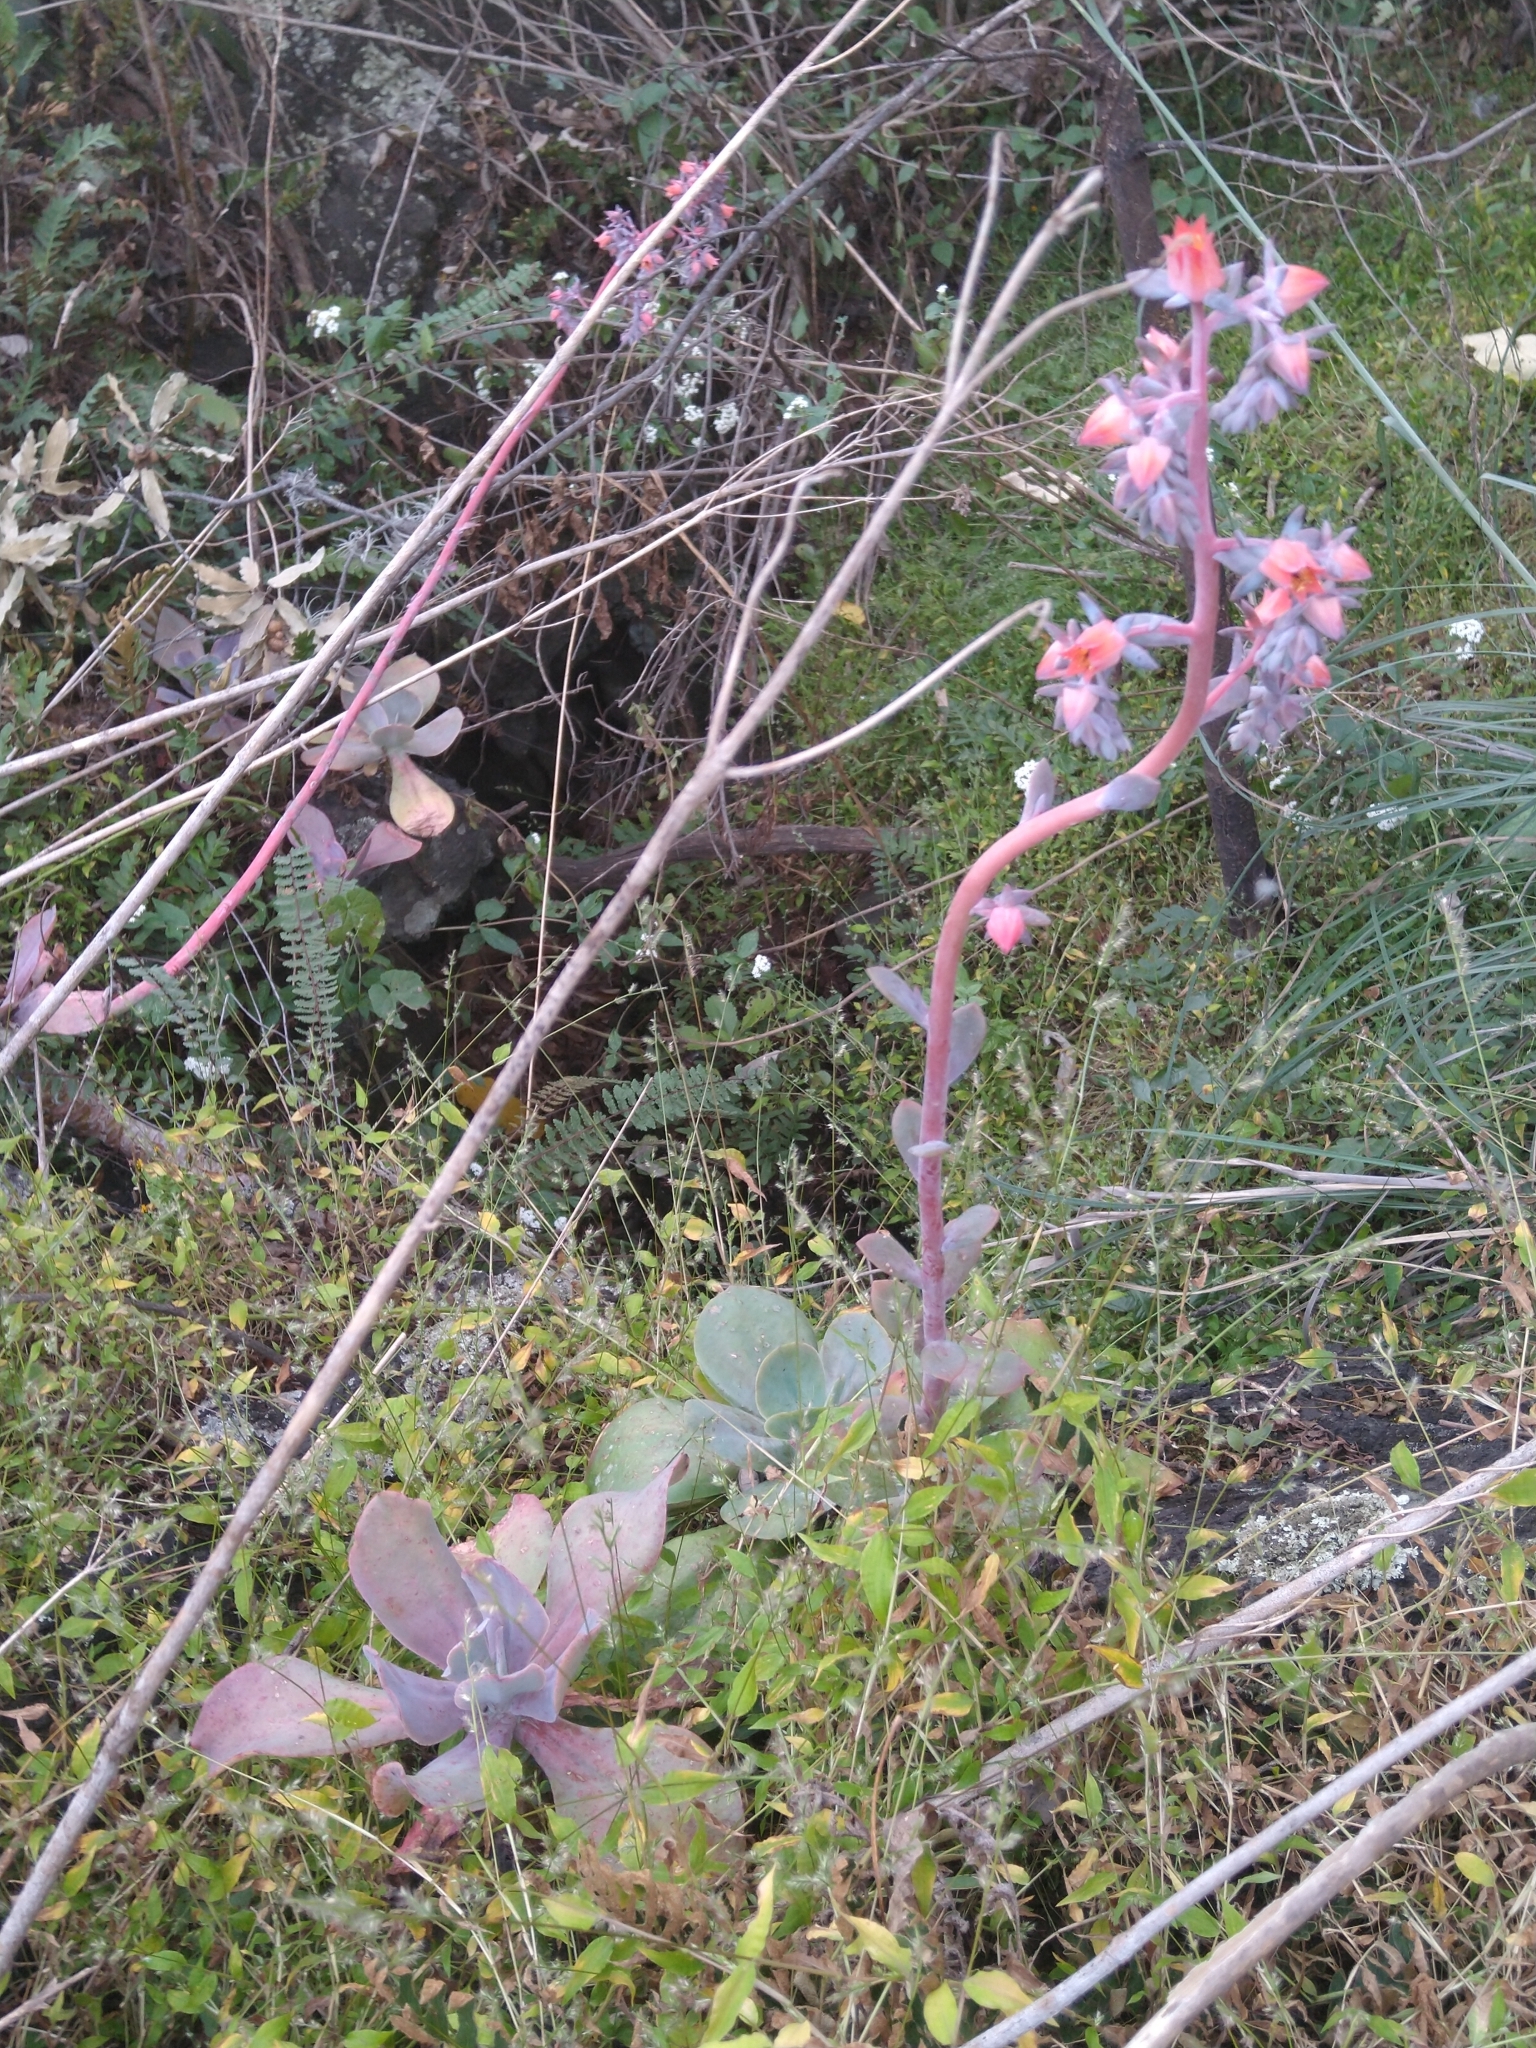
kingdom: Plantae
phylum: Tracheophyta
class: Magnoliopsida
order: Saxifragales
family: Crassulaceae
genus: Echeveria
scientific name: Echeveria gibbiflora
